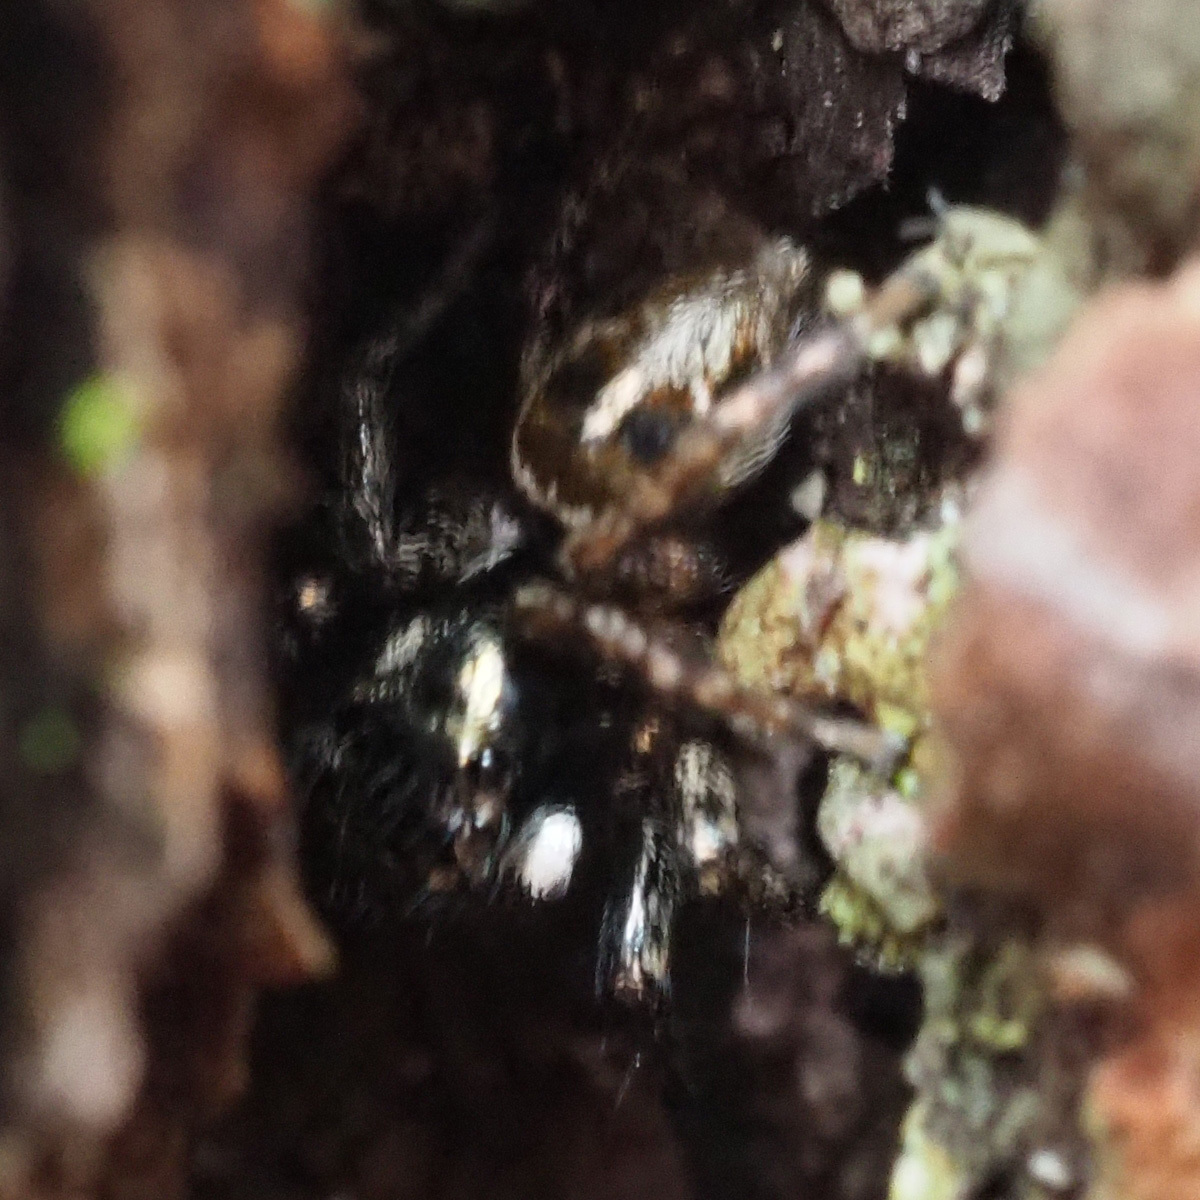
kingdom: Animalia
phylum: Arthropoda
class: Arachnida
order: Araneae
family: Salticidae
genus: Anasaitis
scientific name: Anasaitis canosa
